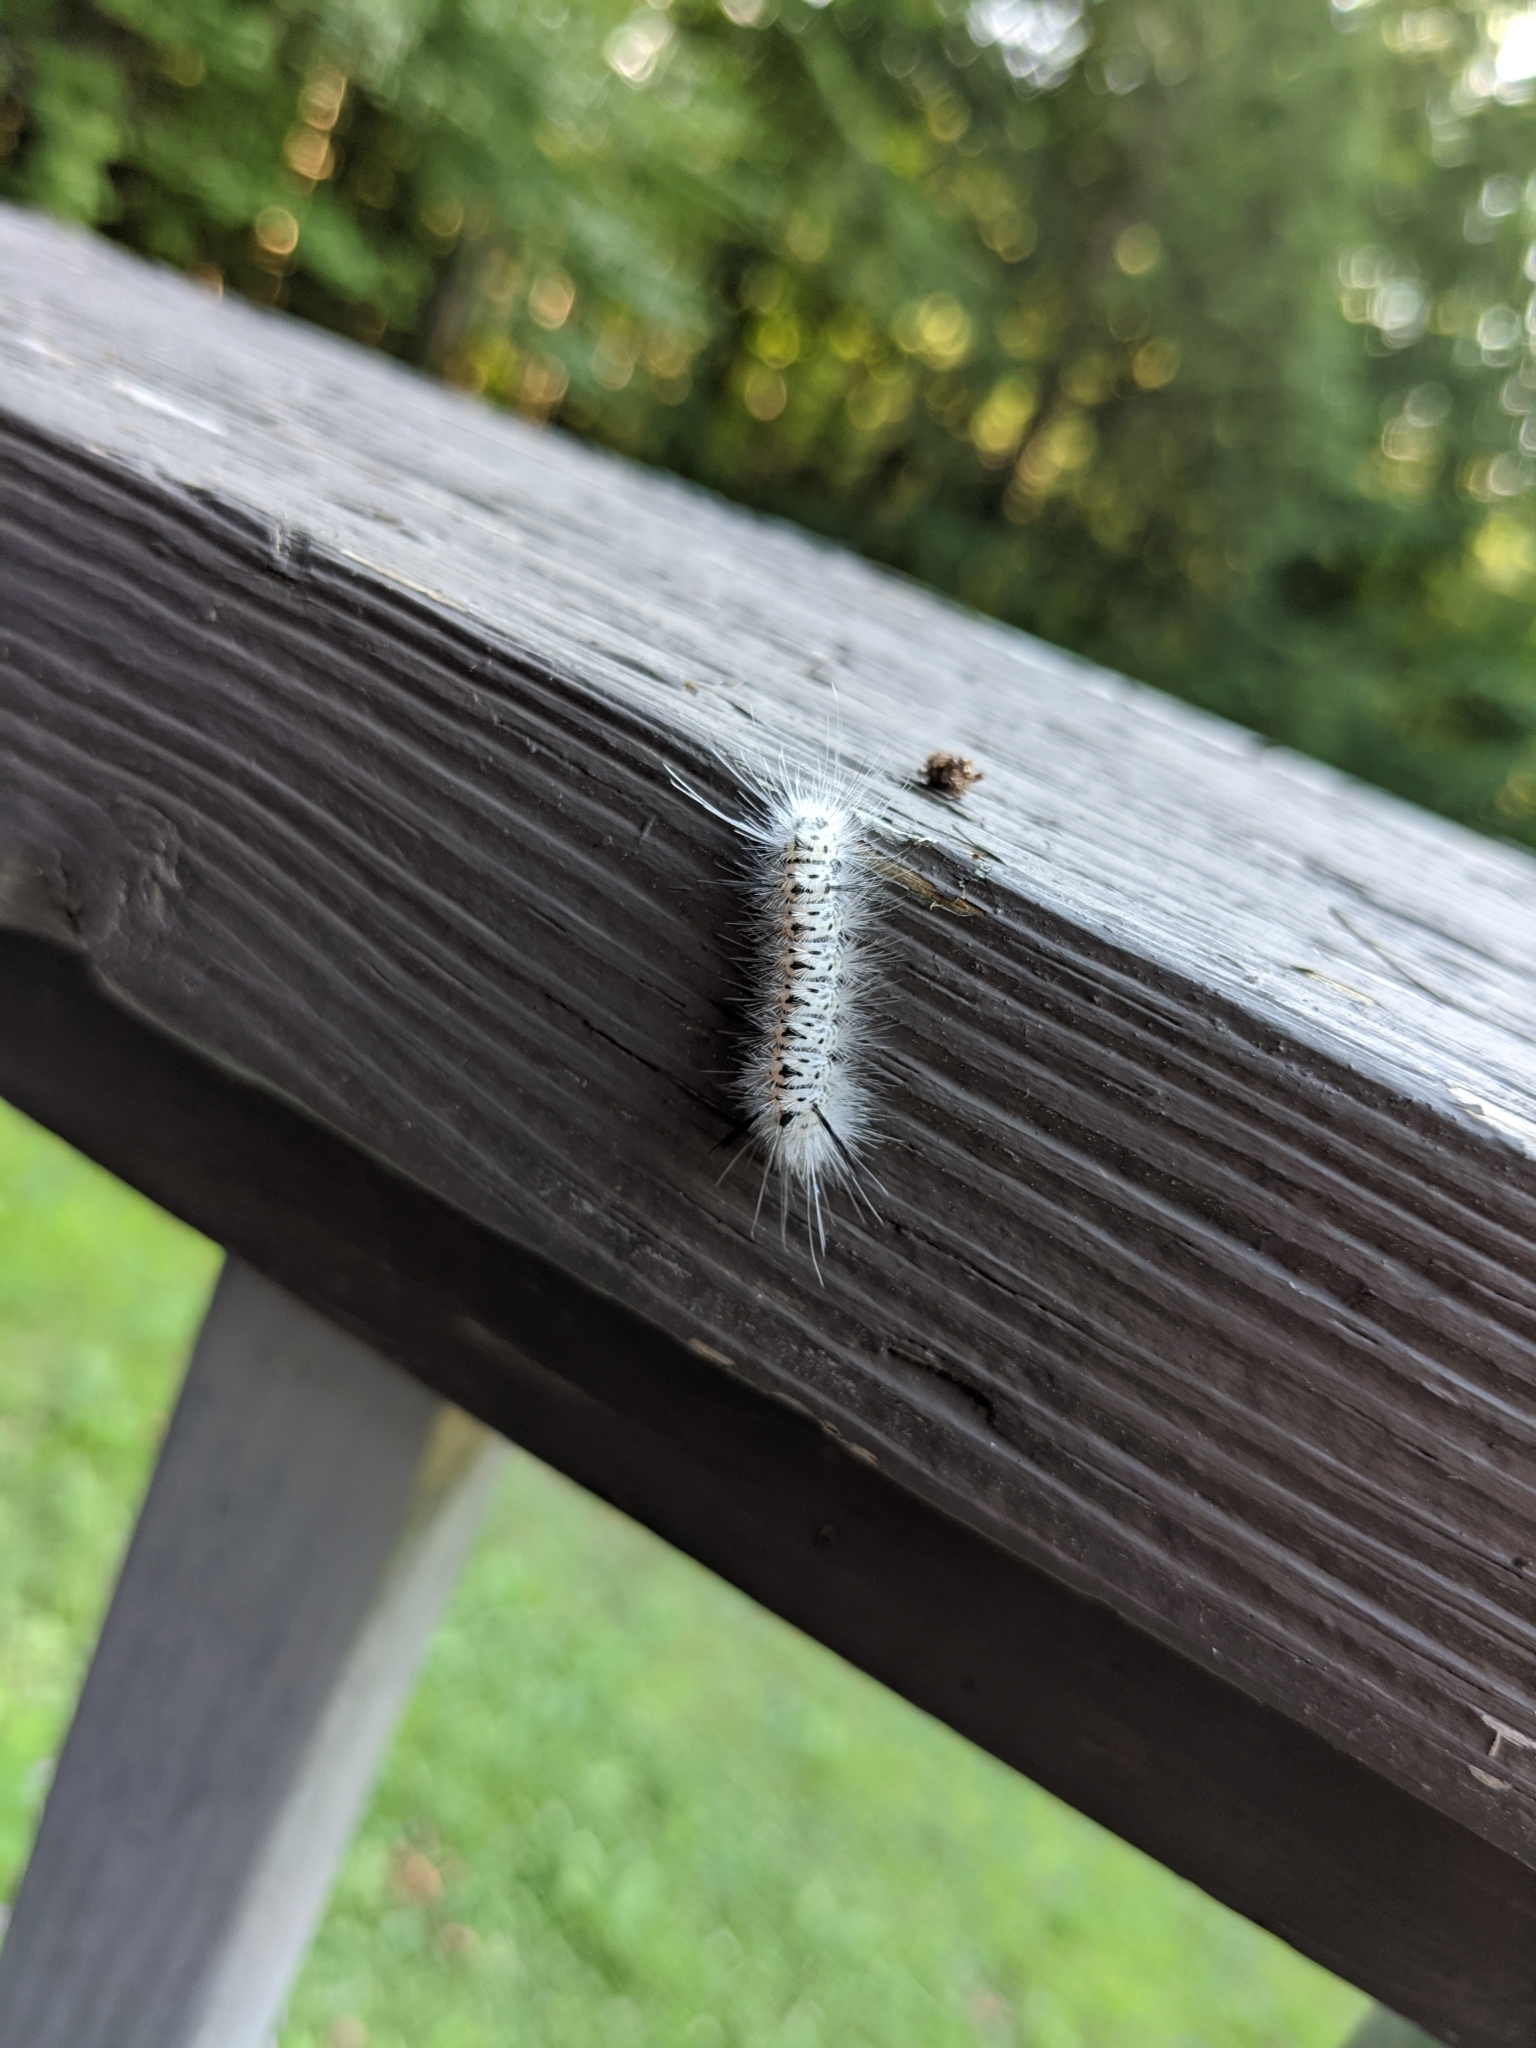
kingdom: Animalia
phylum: Arthropoda
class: Insecta
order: Lepidoptera
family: Erebidae
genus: Lophocampa
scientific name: Lophocampa caryae
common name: Hickory tussock moth
